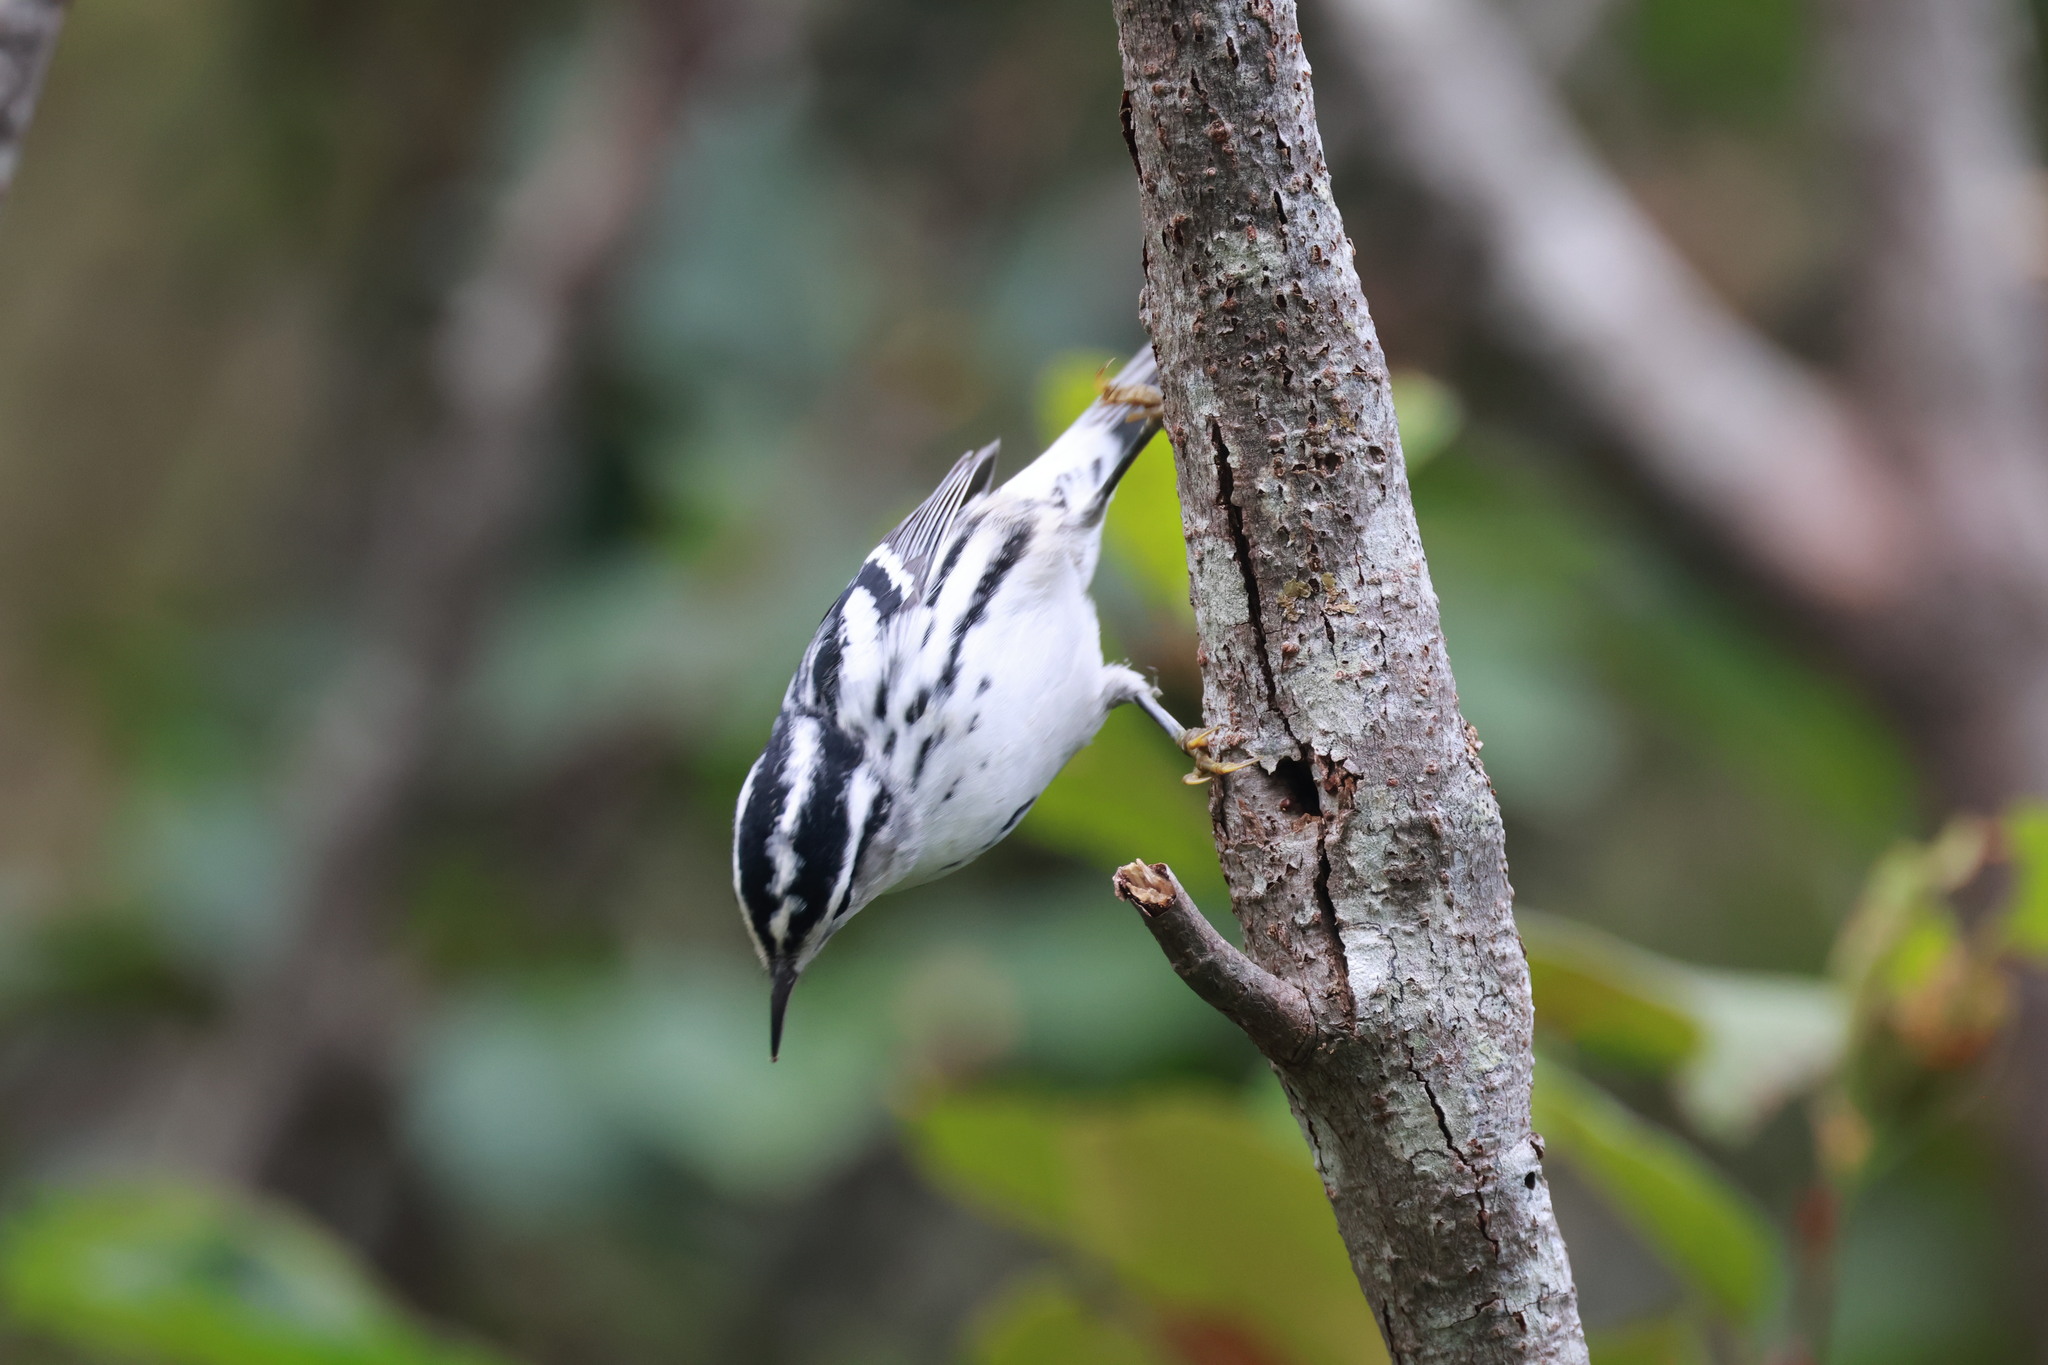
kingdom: Animalia
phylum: Chordata
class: Aves
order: Passeriformes
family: Parulidae
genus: Mniotilta
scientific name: Mniotilta varia
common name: Black-and-white warbler
